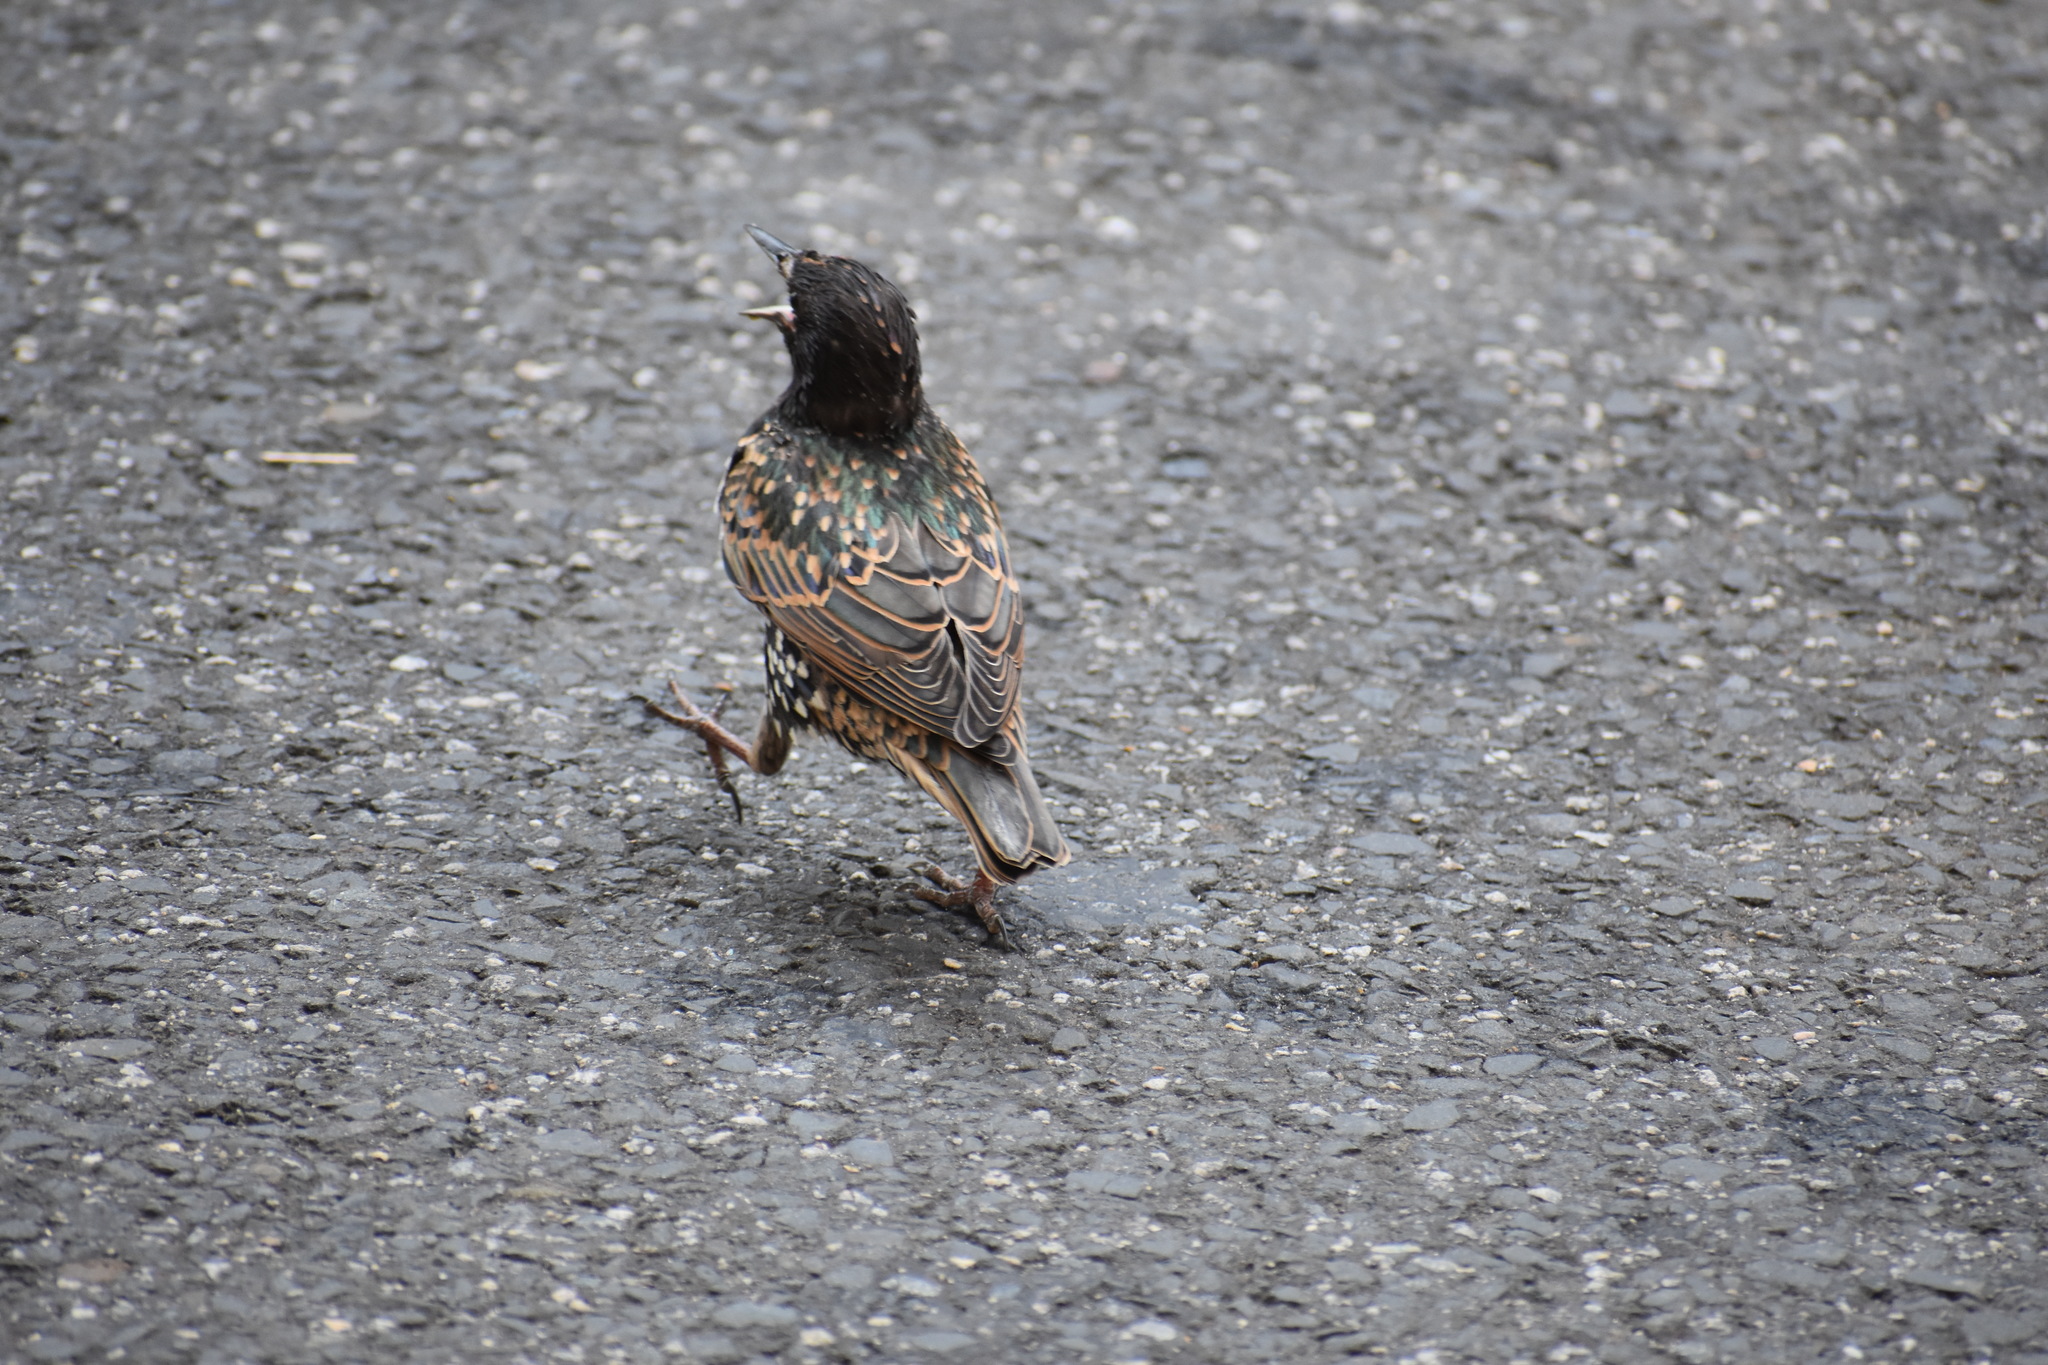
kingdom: Animalia
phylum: Chordata
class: Aves
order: Passeriformes
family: Sturnidae
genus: Sturnus
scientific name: Sturnus vulgaris
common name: Common starling
